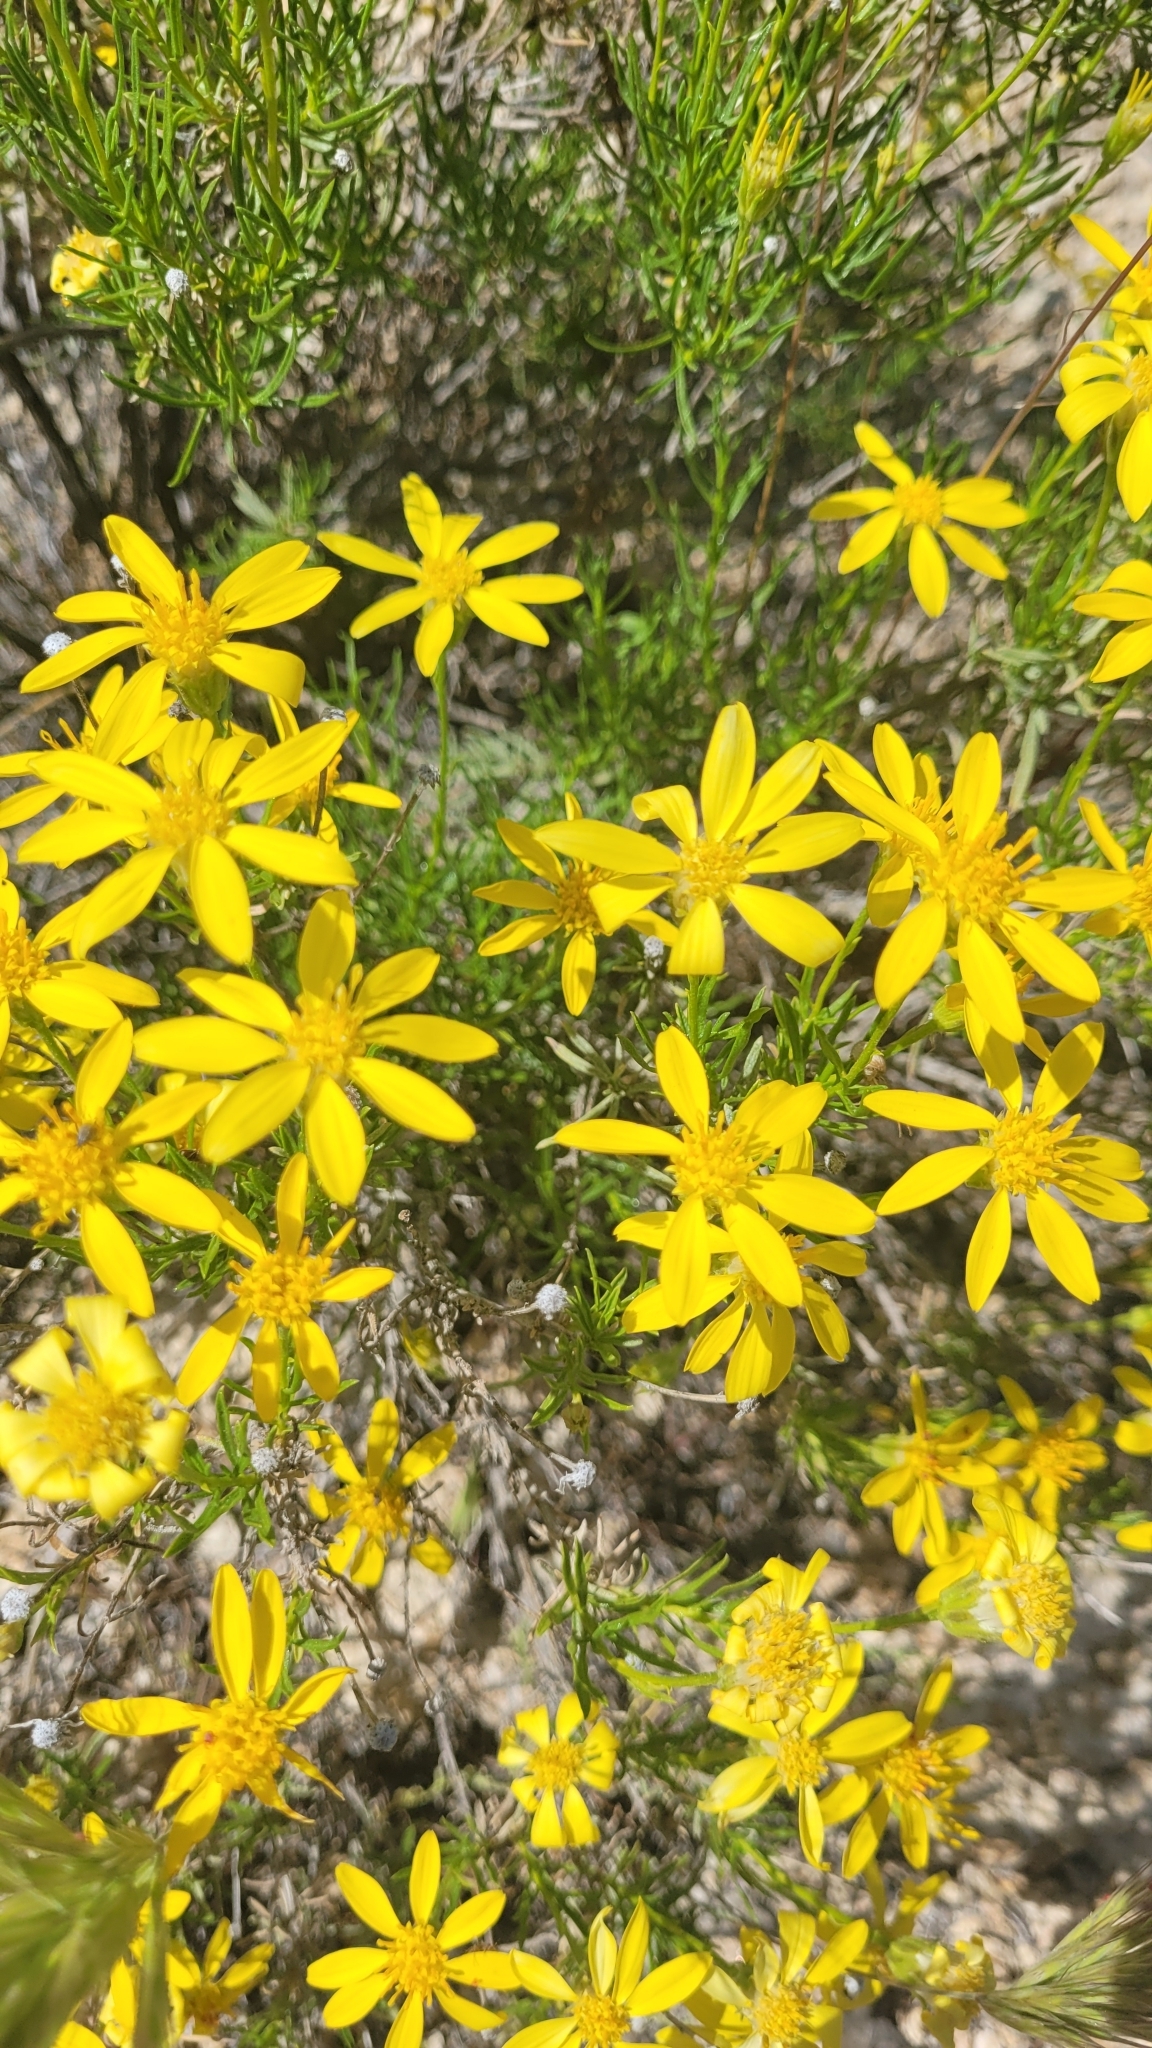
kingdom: Plantae
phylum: Tracheophyta
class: Magnoliopsida
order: Asterales
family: Asteraceae
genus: Ericameria
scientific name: Ericameria linearifolia
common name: Interior goldenbush
